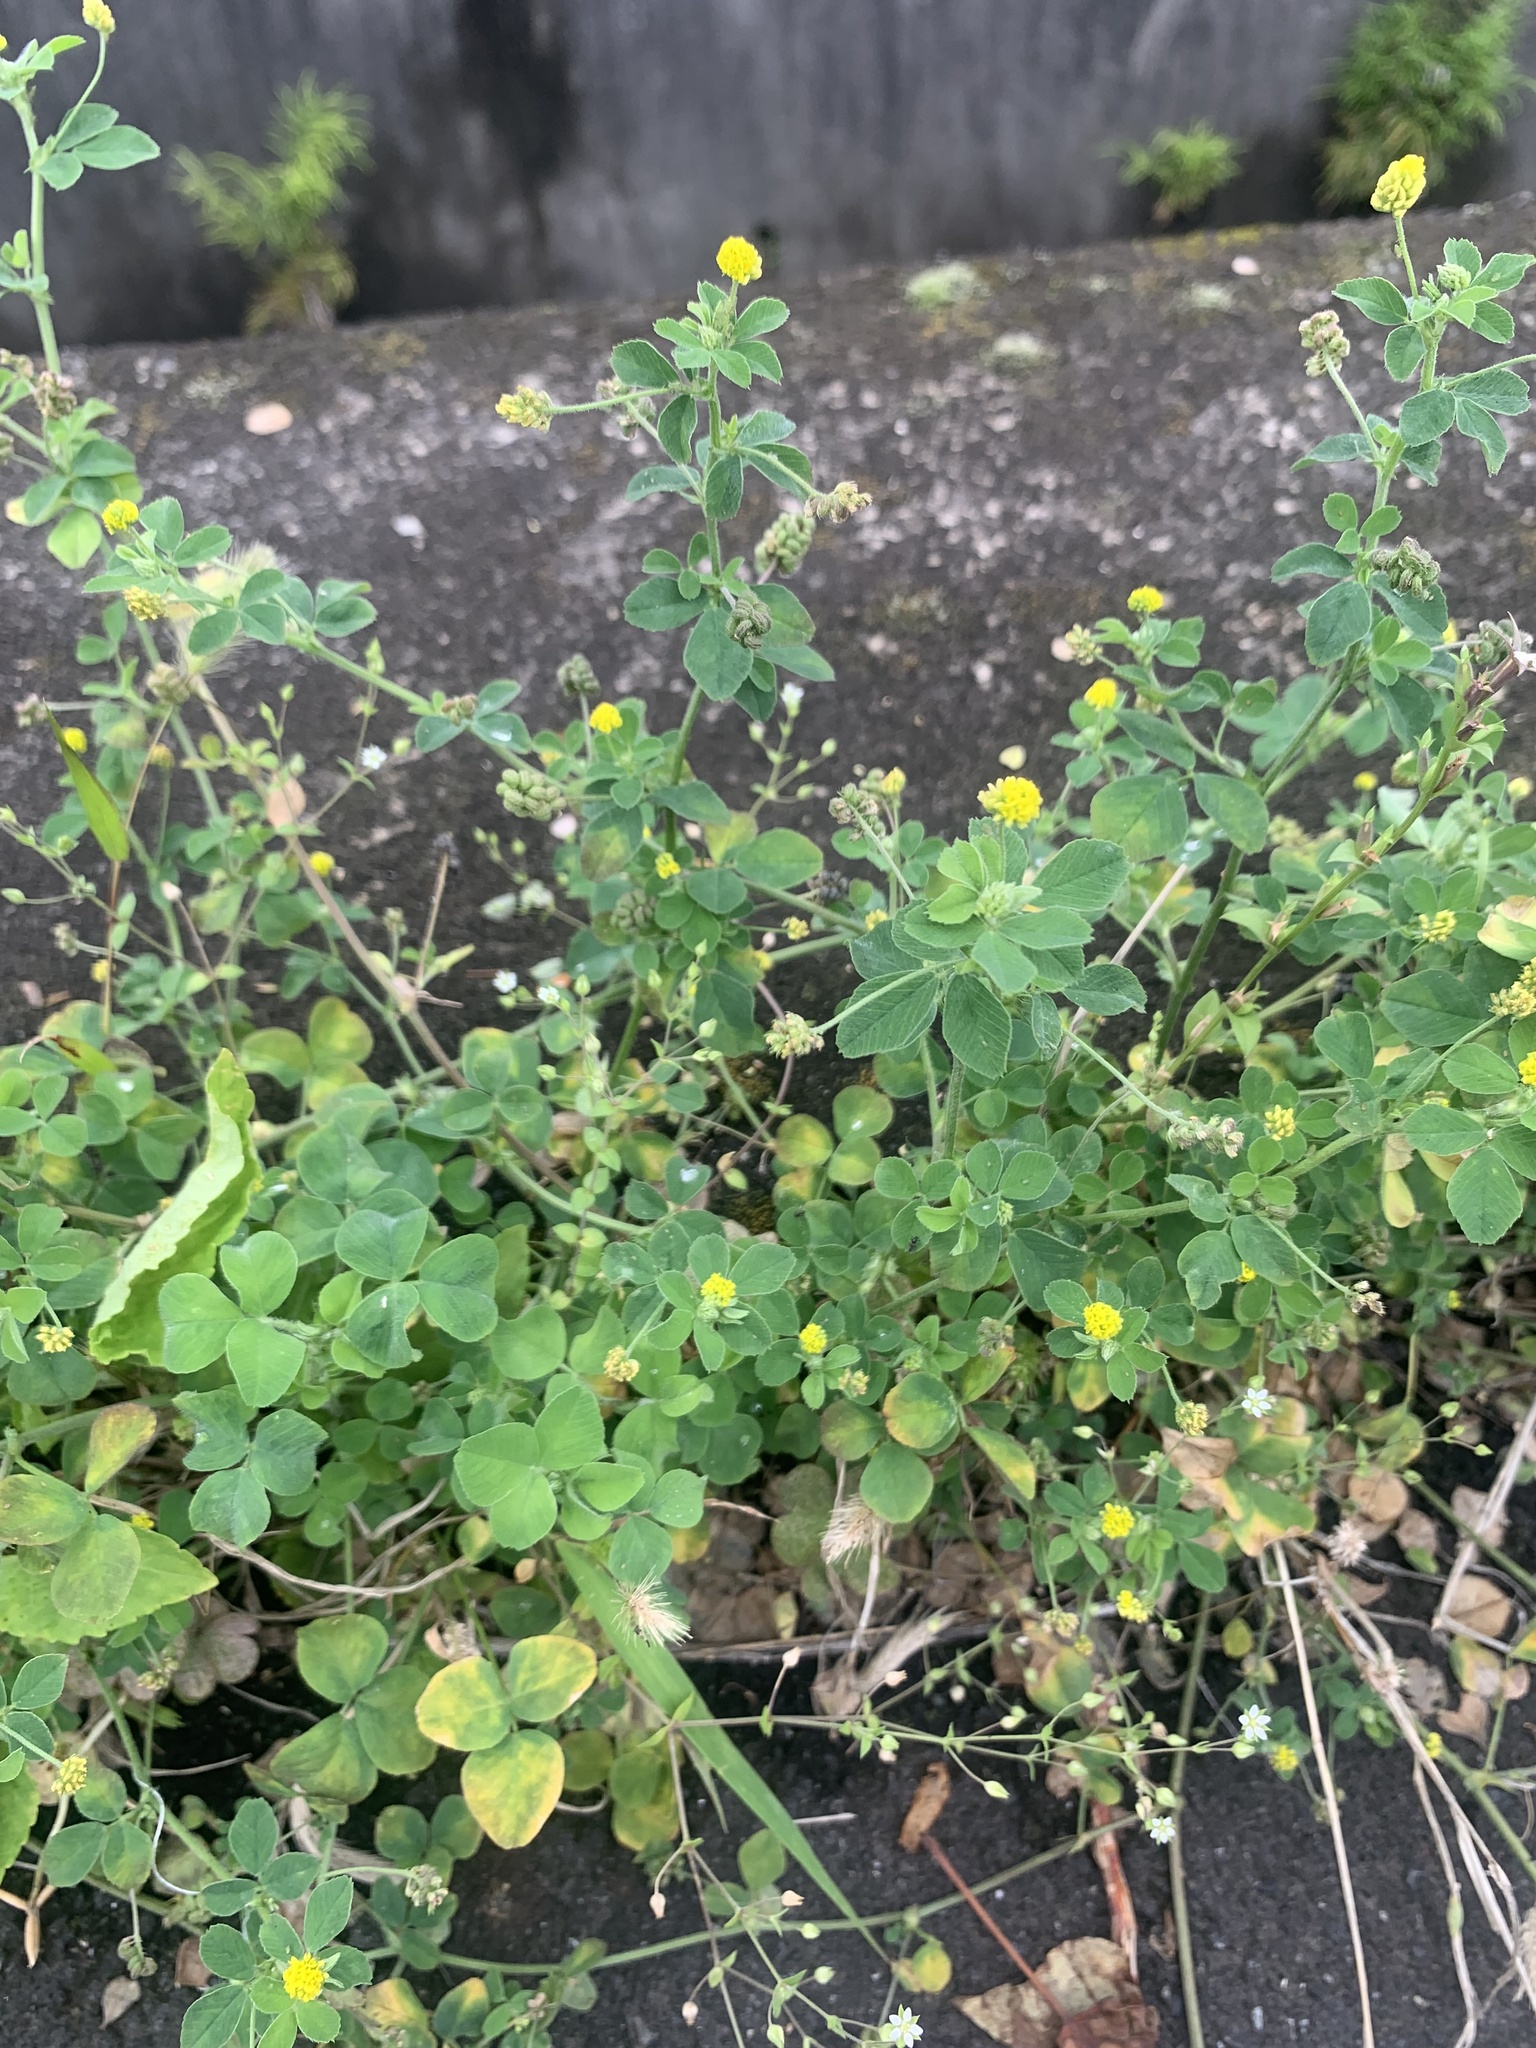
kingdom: Plantae
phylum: Tracheophyta
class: Magnoliopsida
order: Fabales
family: Fabaceae
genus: Medicago
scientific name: Medicago lupulina
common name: Black medick
